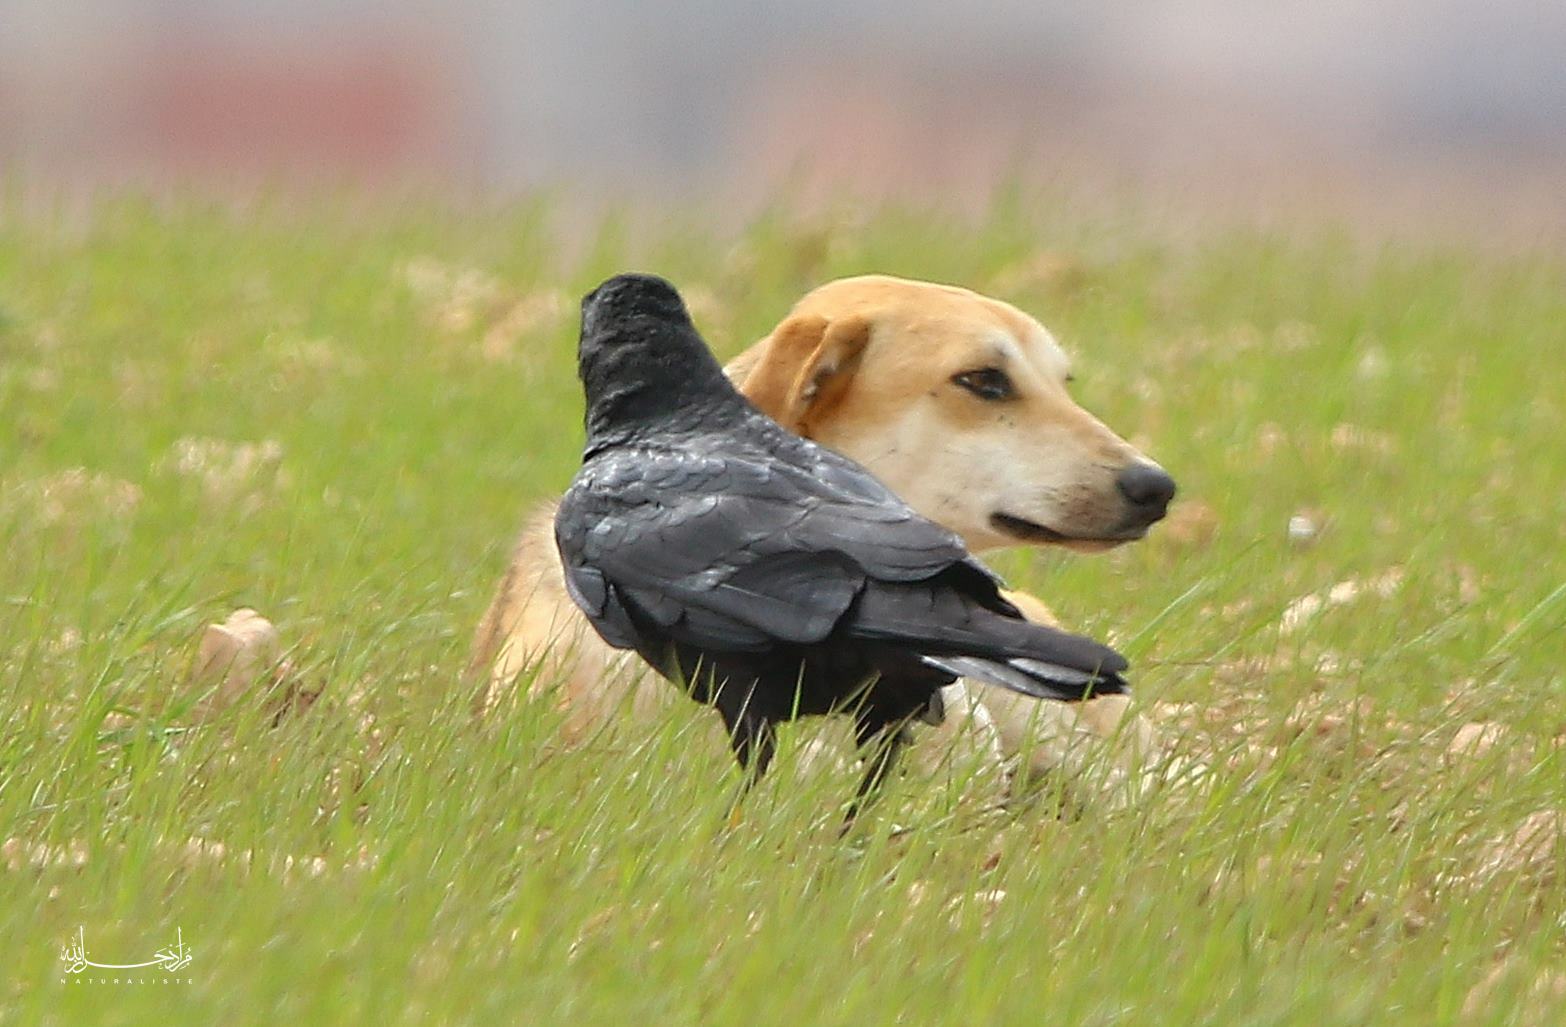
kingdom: Animalia
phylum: Chordata
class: Aves
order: Passeriformes
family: Corvidae
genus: Corvus
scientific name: Corvus corax
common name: Common raven
